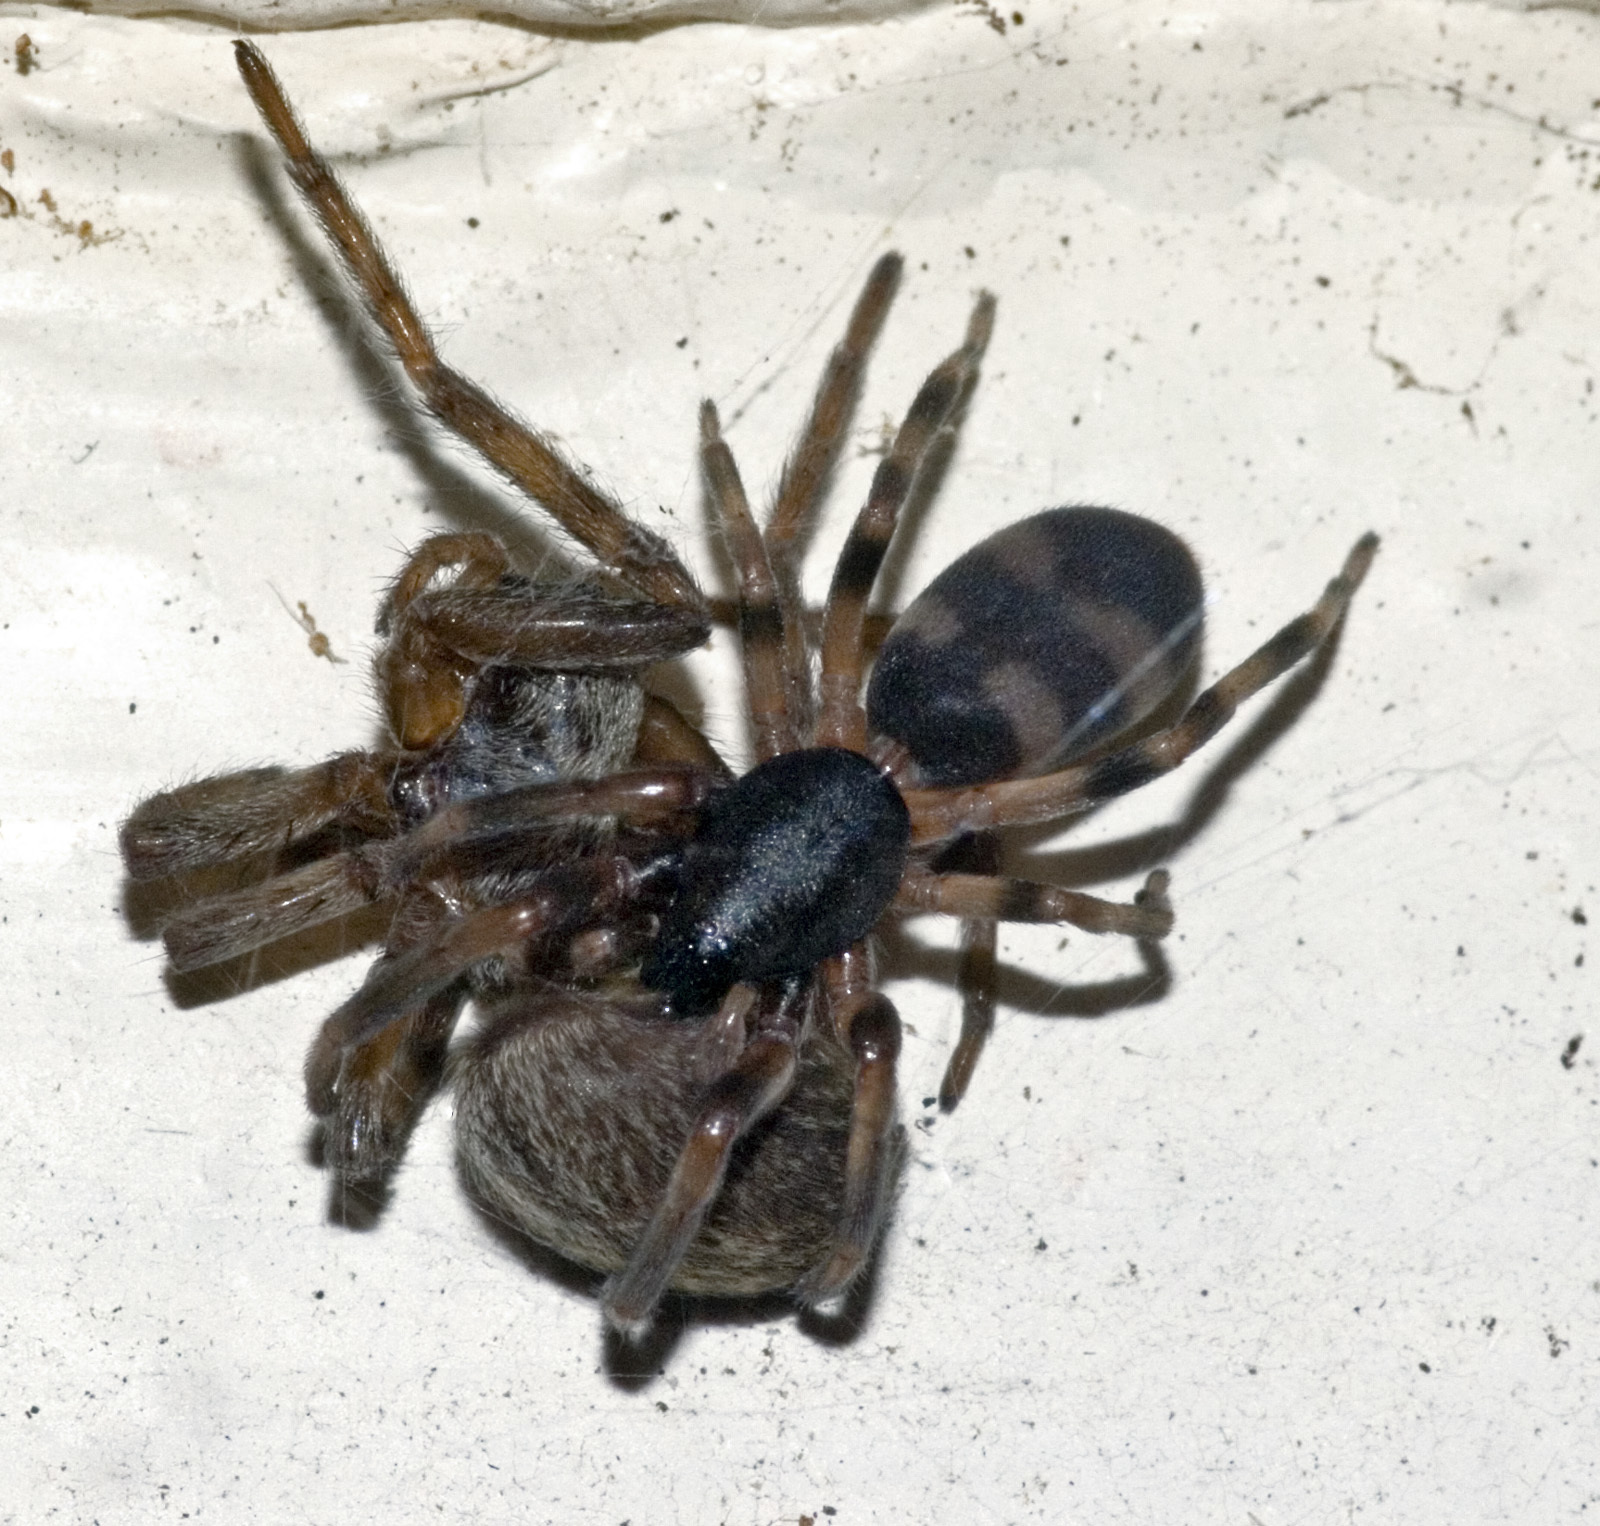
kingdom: Animalia
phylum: Arthropoda
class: Arachnida
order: Araneae
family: Lamponidae
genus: Lampona
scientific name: Lampona murina
